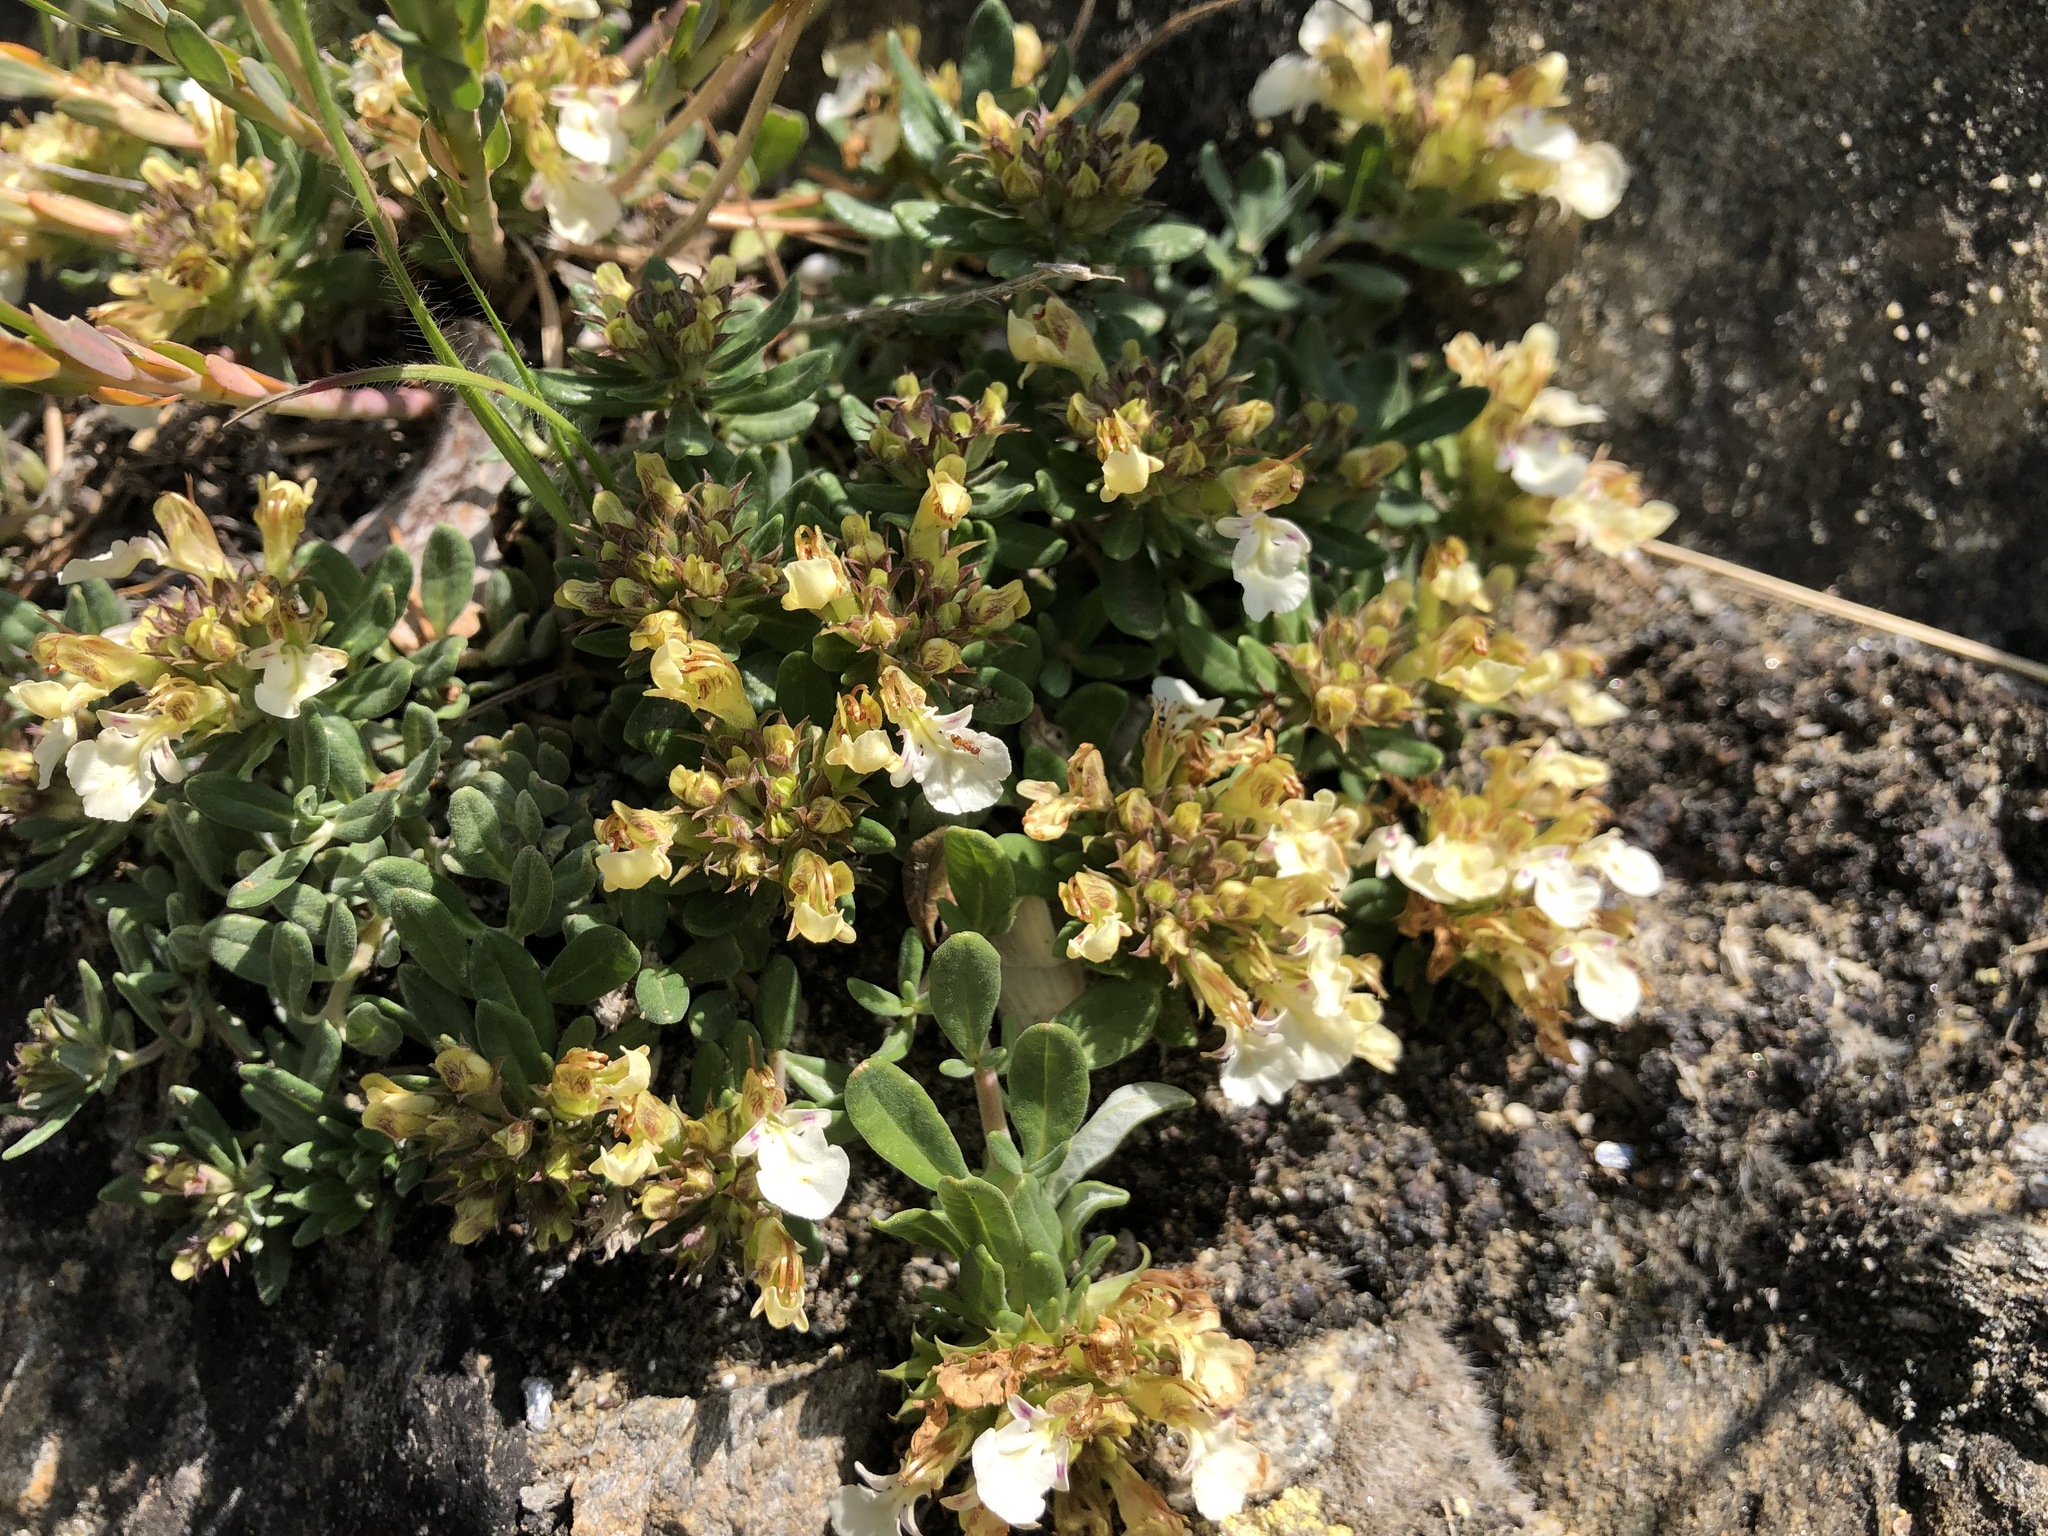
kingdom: Plantae
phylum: Tracheophyta
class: Magnoliopsida
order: Lamiales
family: Lamiaceae
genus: Teucrium
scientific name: Teucrium montanum
